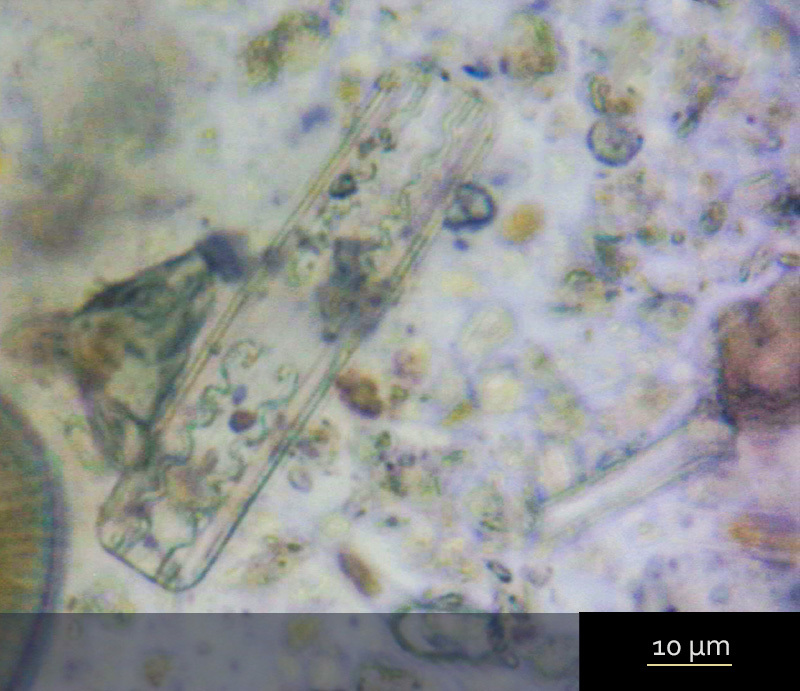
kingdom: Chromista
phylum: Ochrophyta
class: Bacillariophyceae
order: Striatellales
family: Striatellaceae
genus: Grammatophora
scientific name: Grammatophora serpentina
